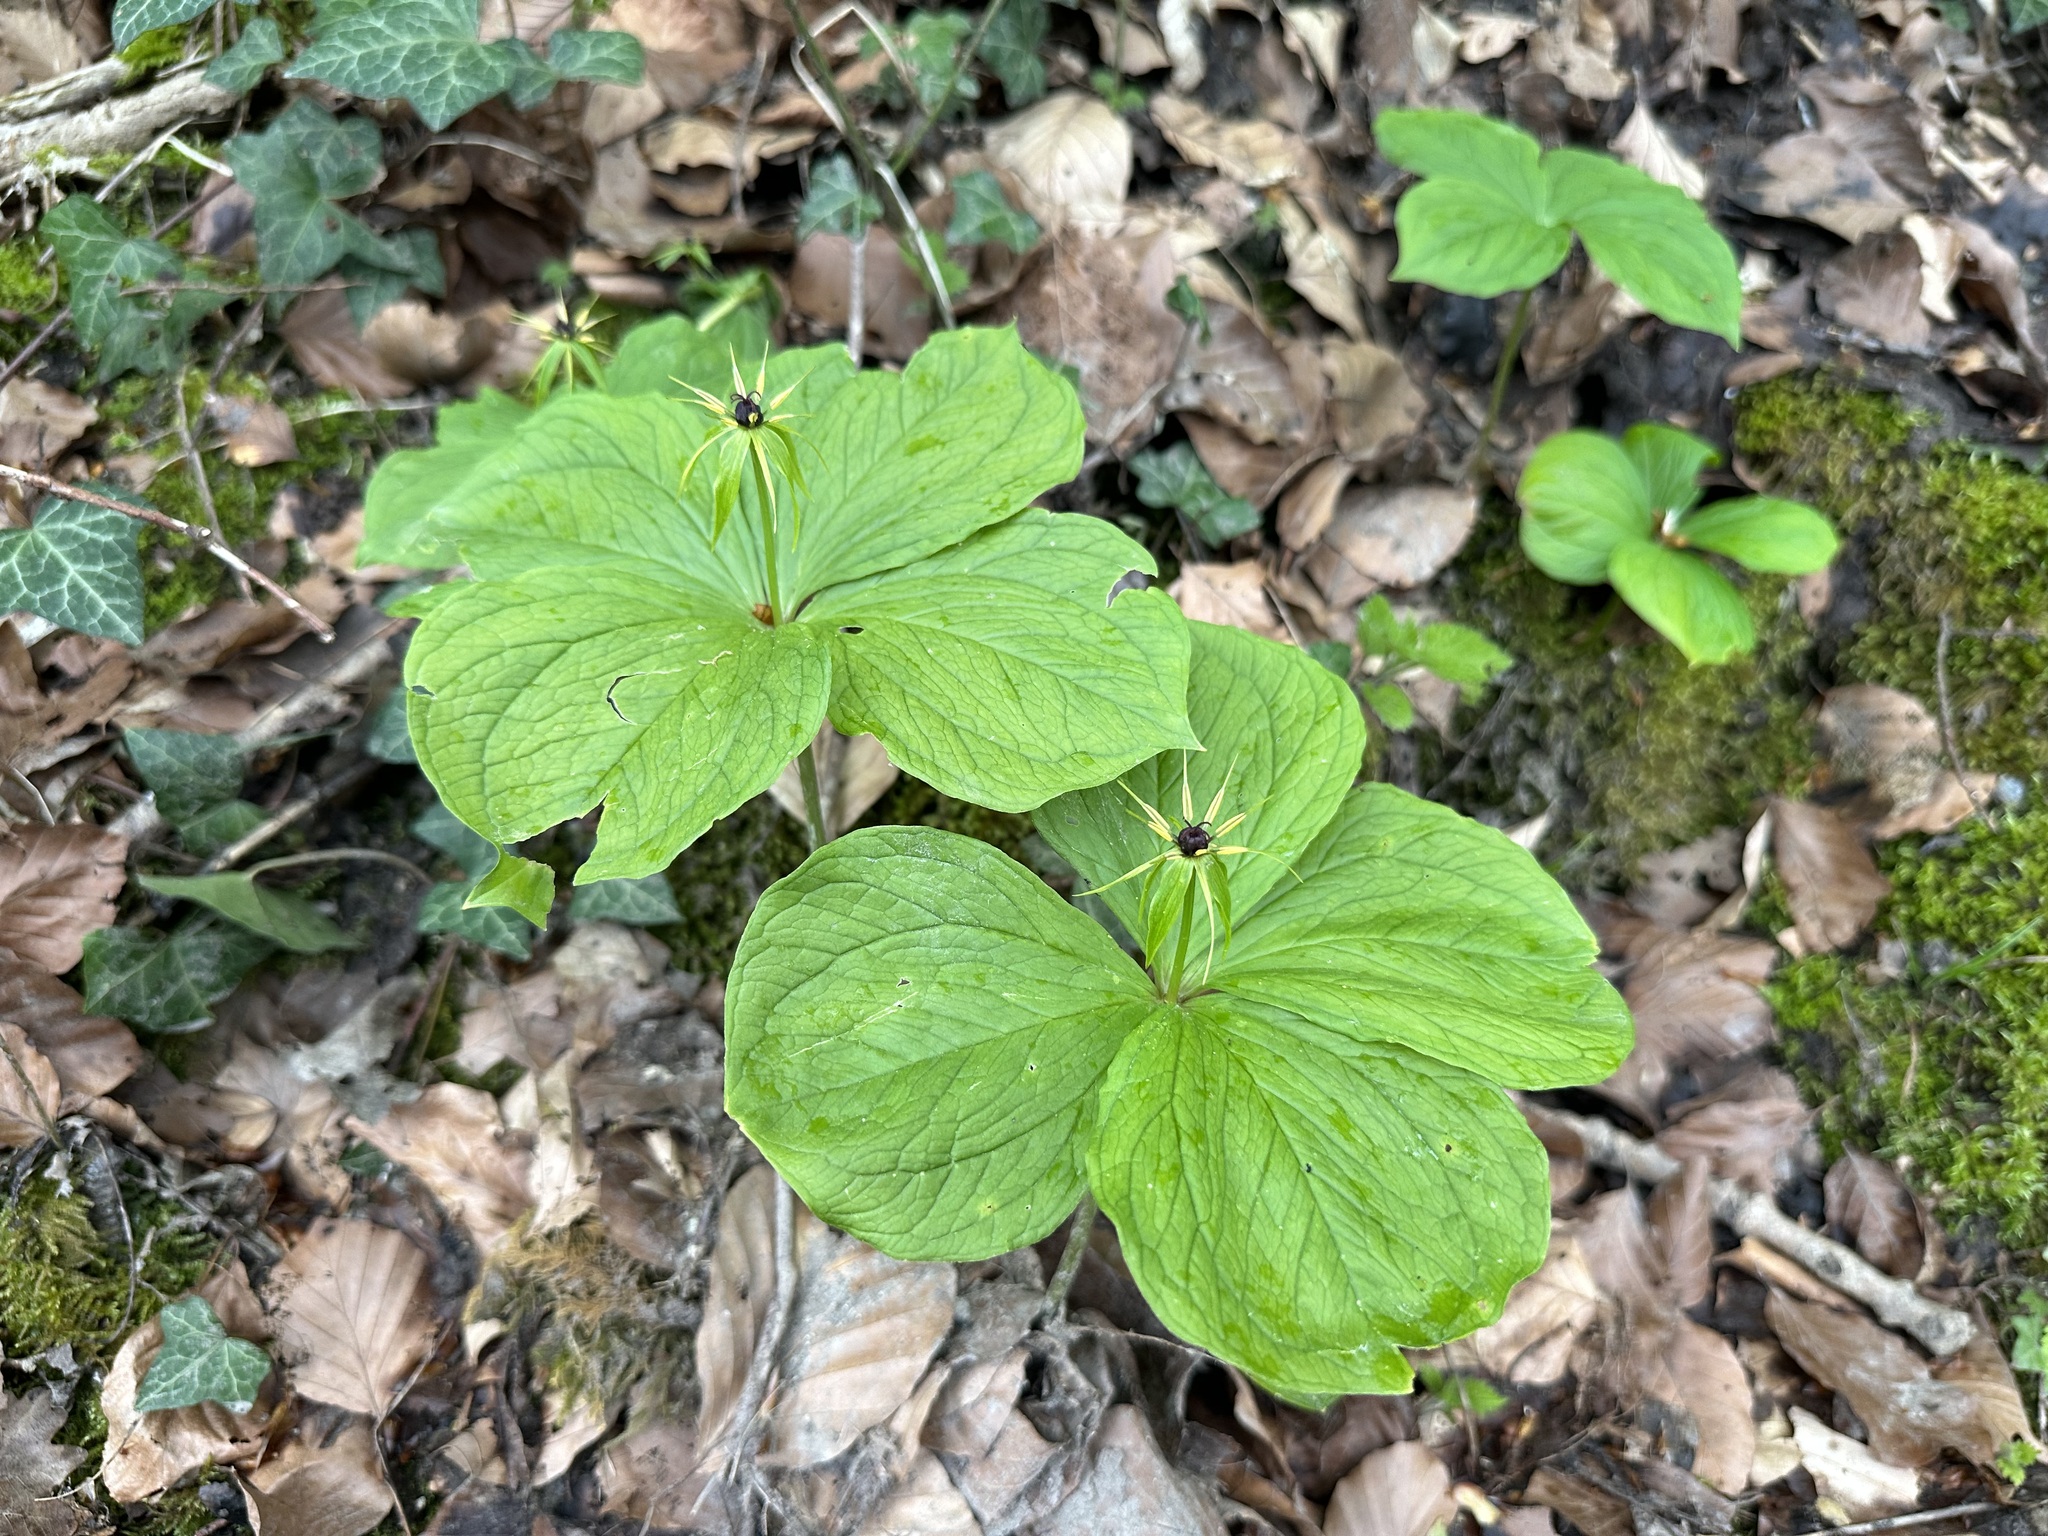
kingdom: Plantae
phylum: Tracheophyta
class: Liliopsida
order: Liliales
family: Melanthiaceae
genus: Paris
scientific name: Paris quadrifolia
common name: Herb-paris
